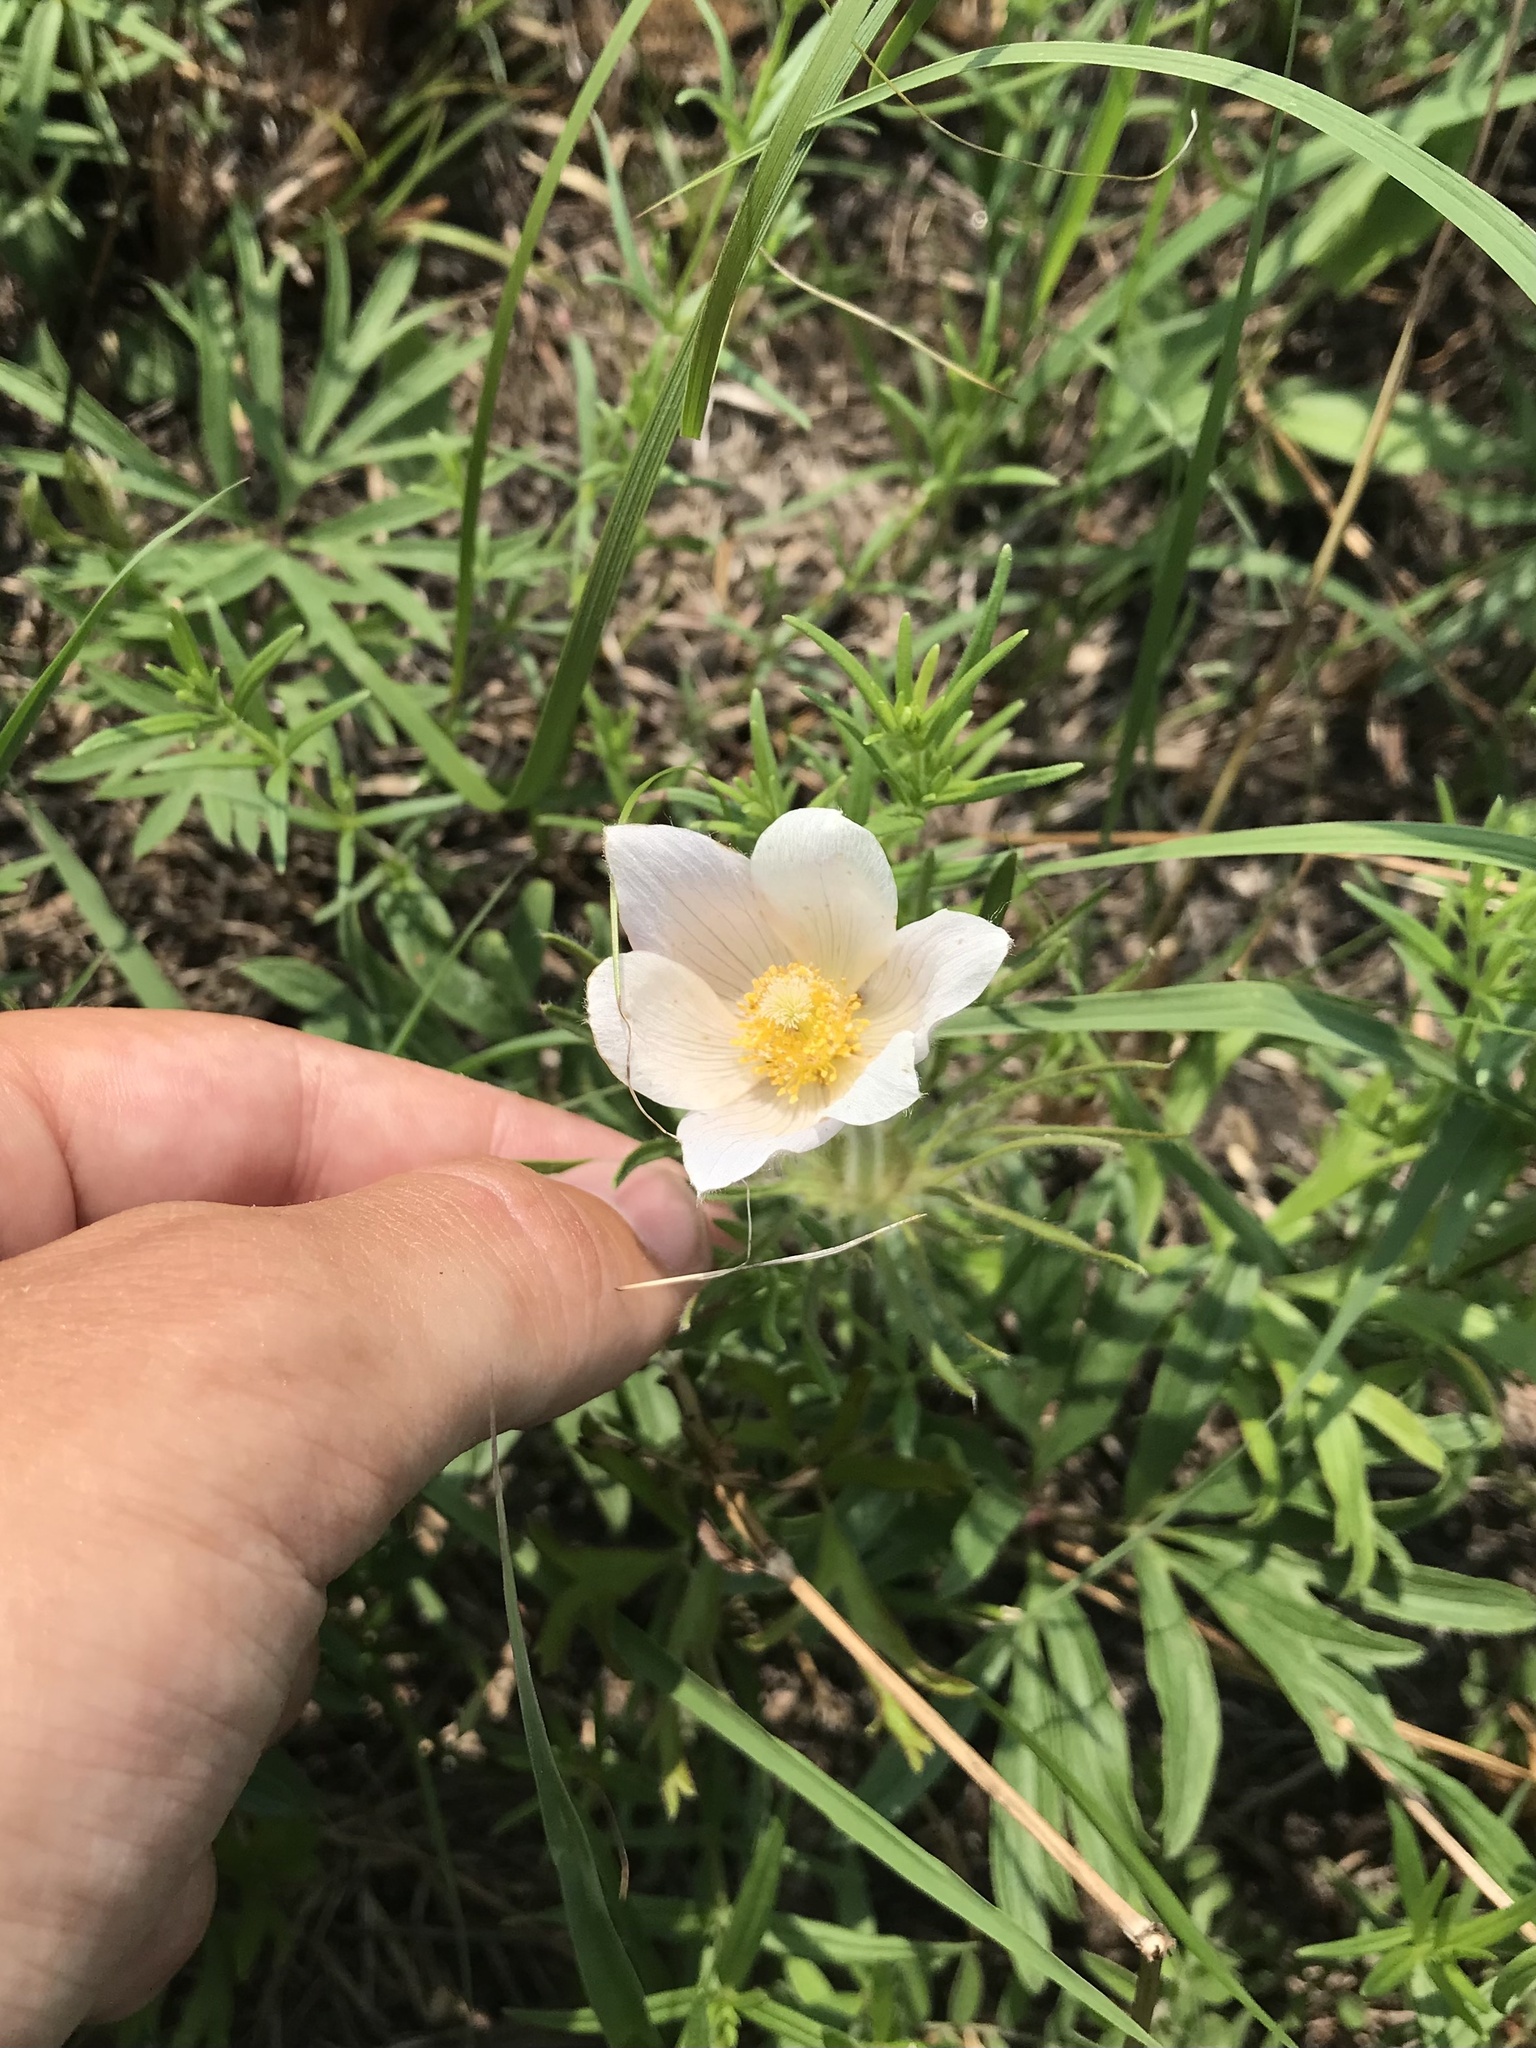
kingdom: Plantae
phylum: Tracheophyta
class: Magnoliopsida
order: Ranunculales
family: Ranunculaceae
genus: Pulsatilla
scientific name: Pulsatilla nuttalliana
